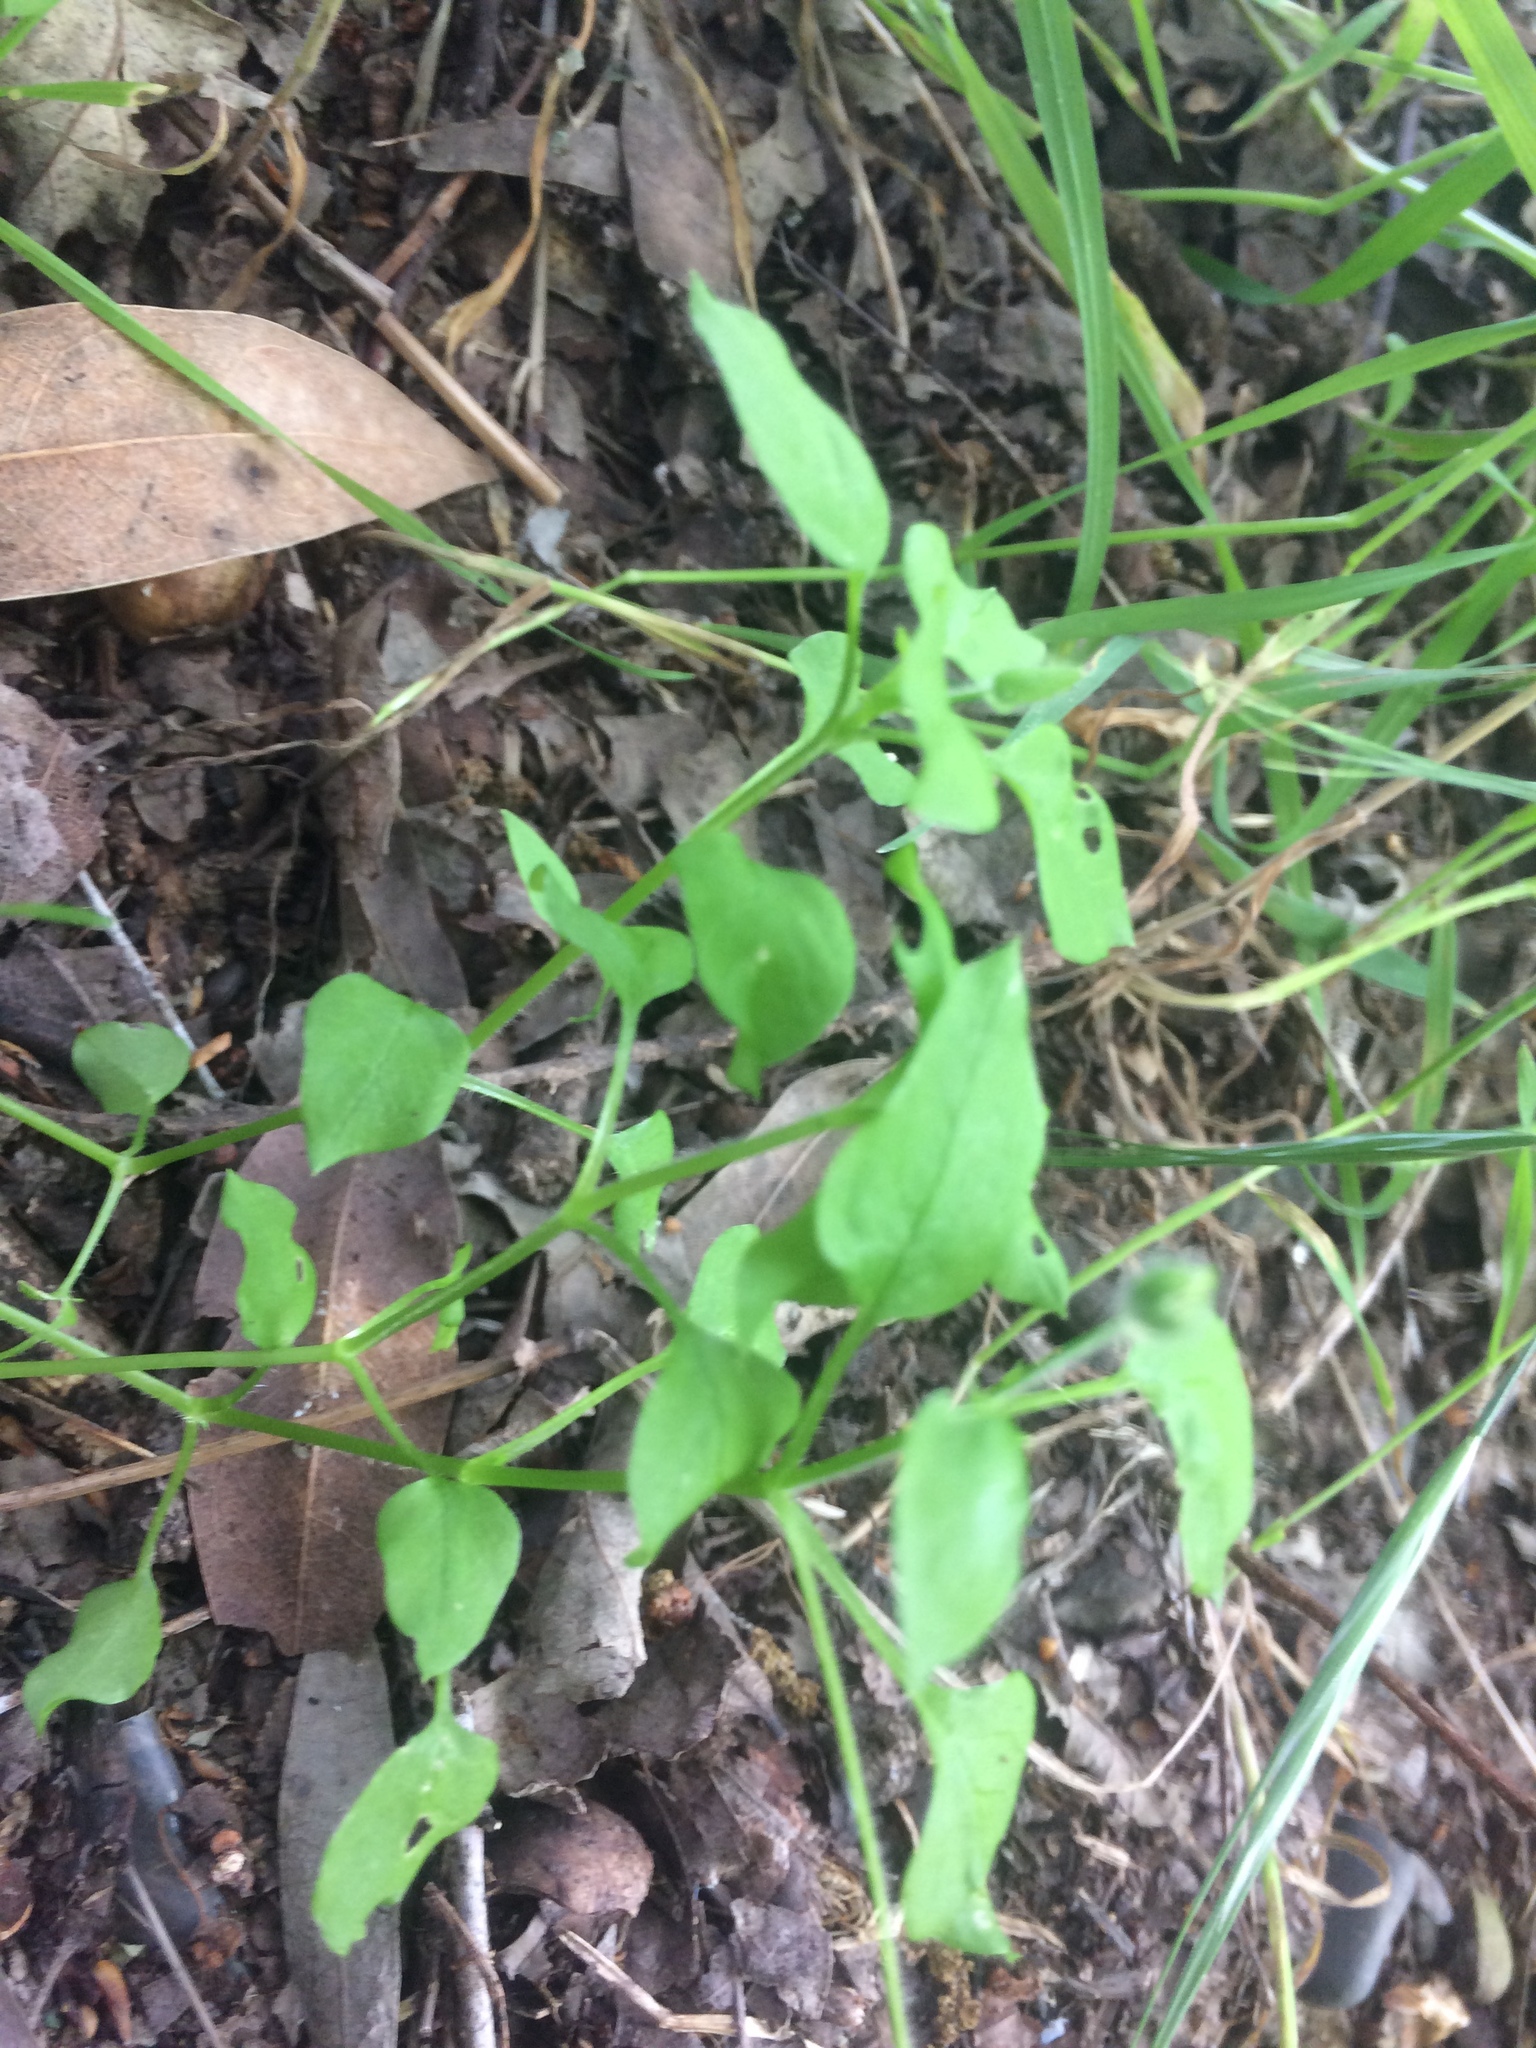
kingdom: Plantae
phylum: Tracheophyta
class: Magnoliopsida
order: Caryophyllales
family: Caryophyllaceae
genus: Stellaria
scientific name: Stellaria media
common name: Common chickweed
